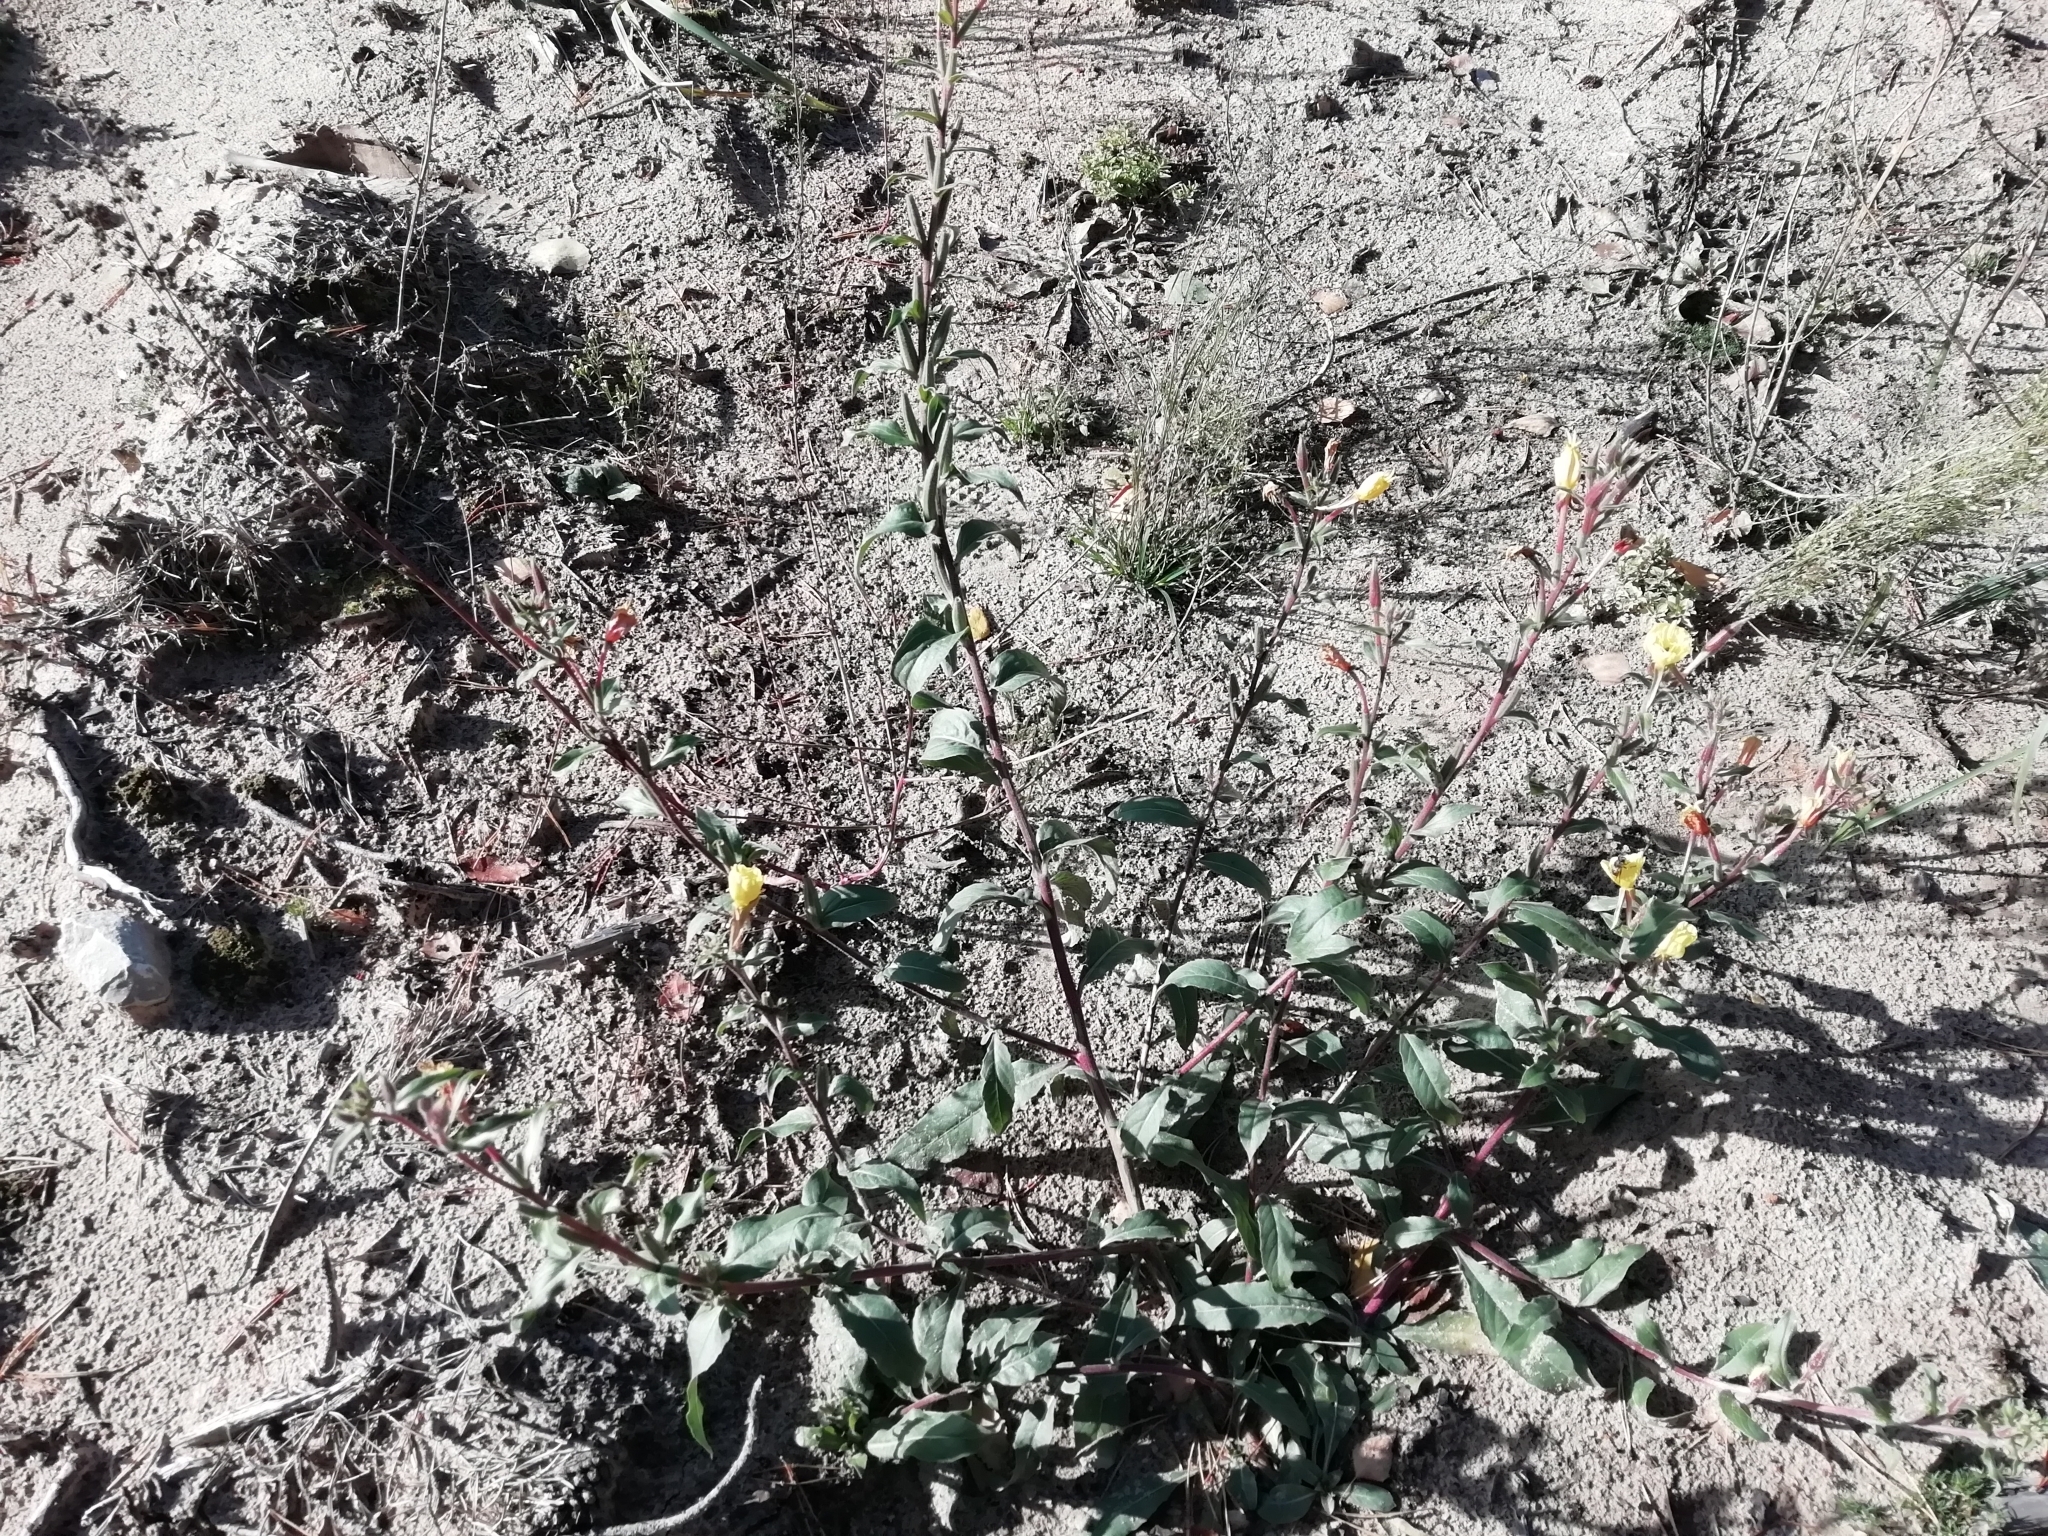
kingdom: Plantae
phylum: Tracheophyta
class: Magnoliopsida
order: Myrtales
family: Onagraceae
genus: Oenothera
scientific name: Oenothera coloratissima
